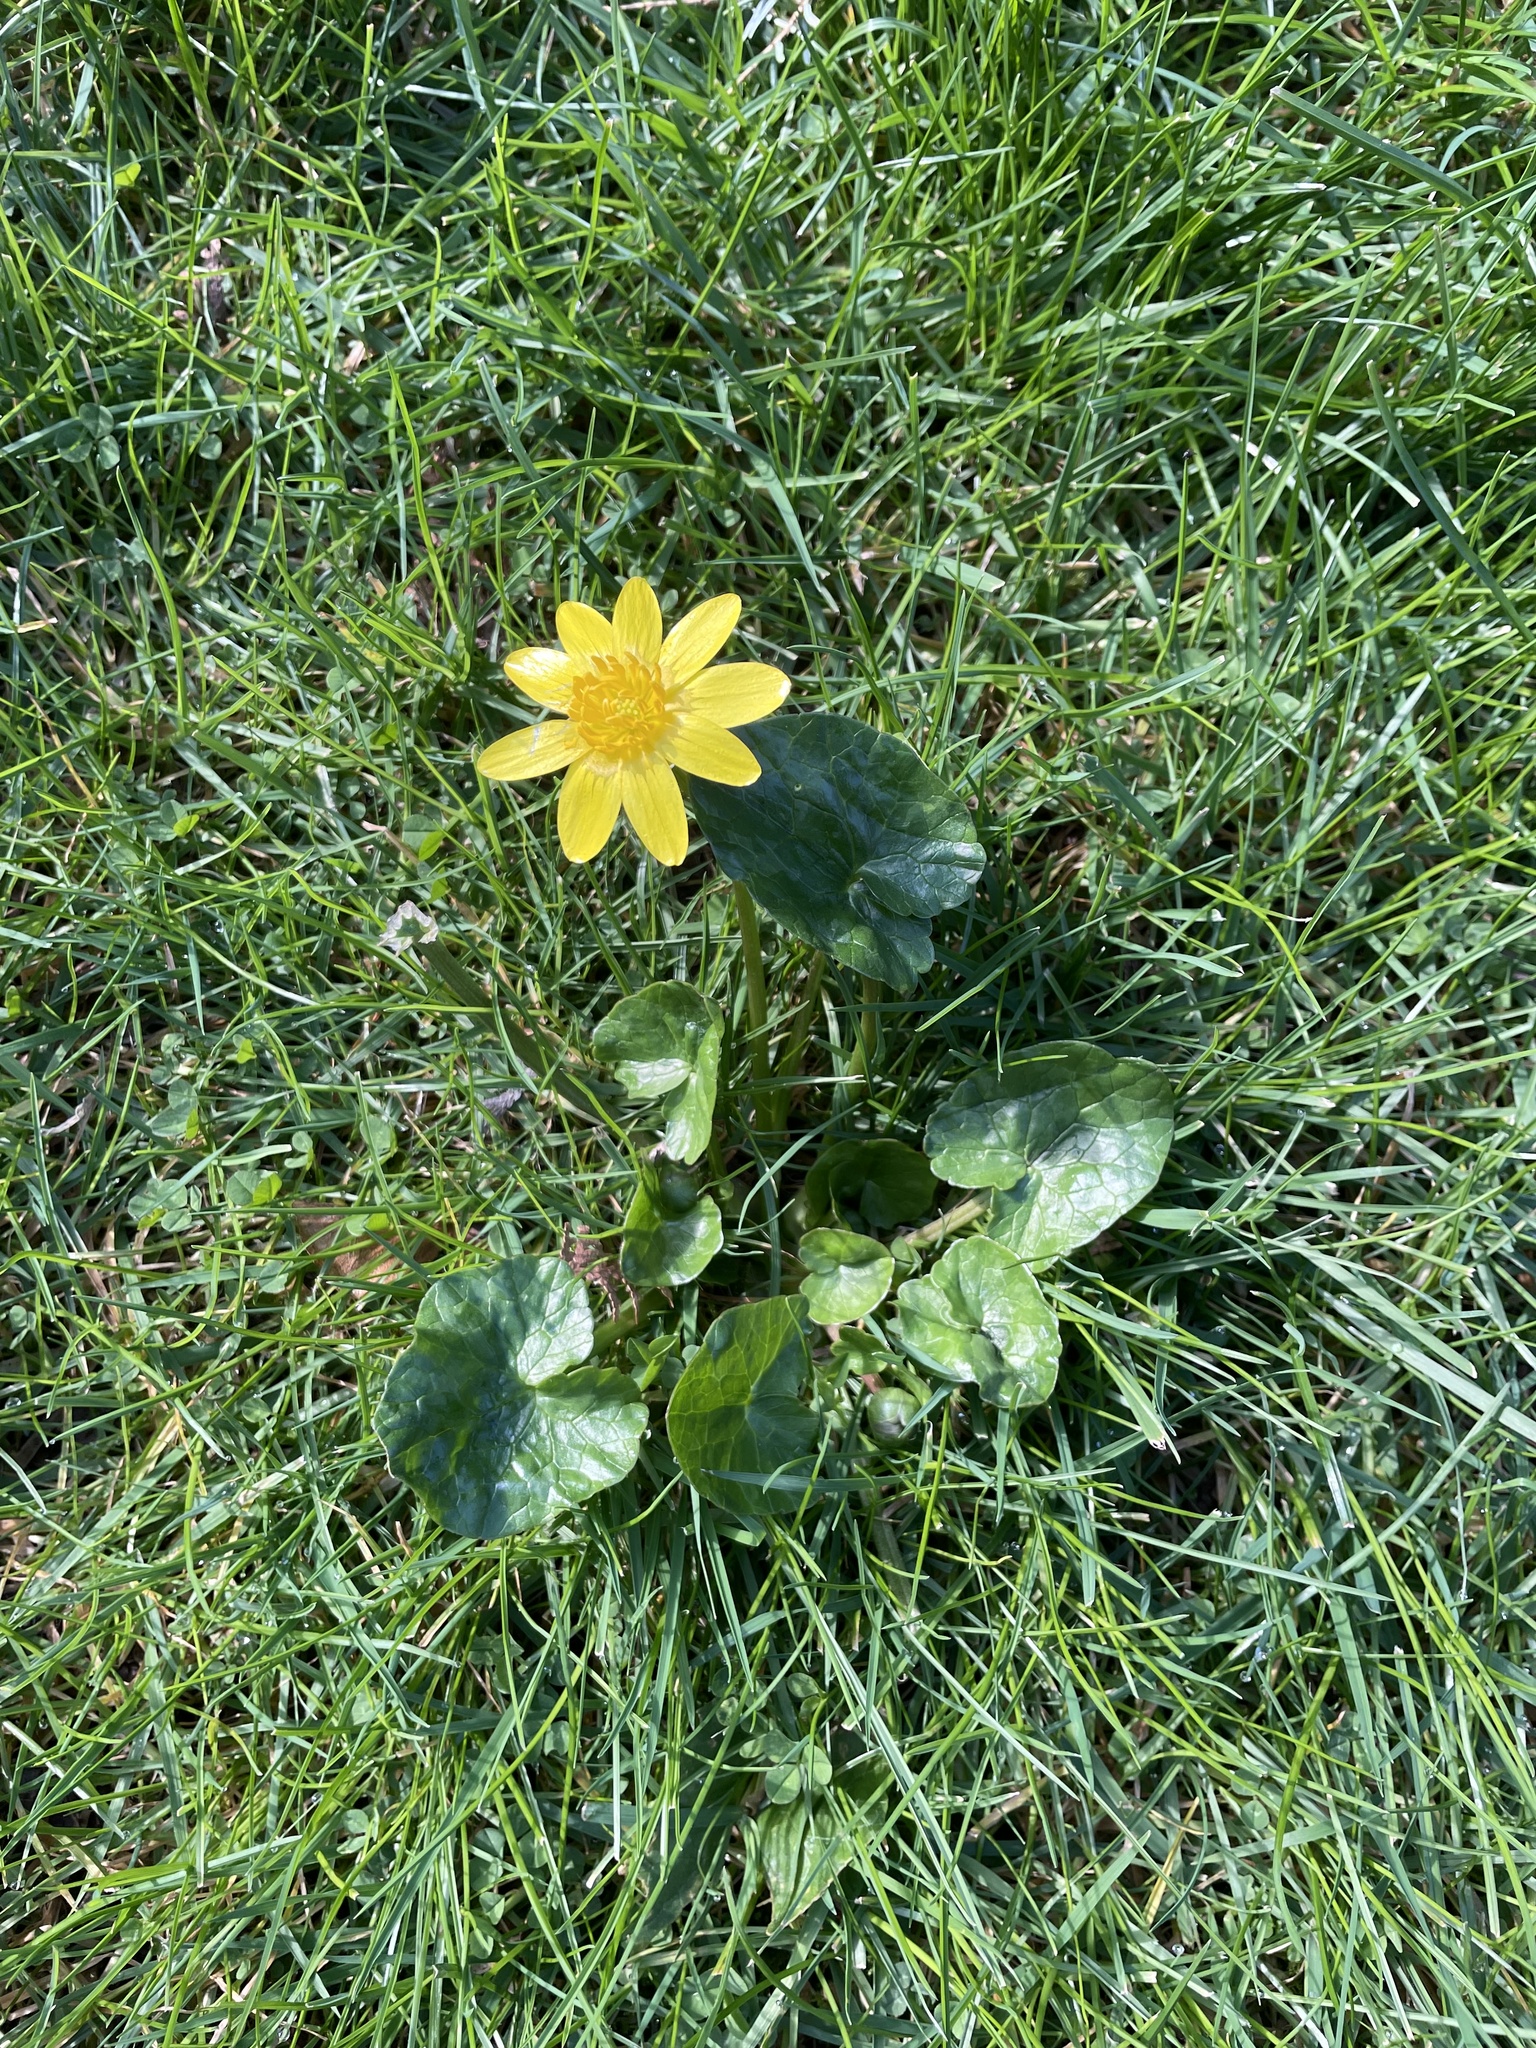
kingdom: Plantae
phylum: Tracheophyta
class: Magnoliopsida
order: Ranunculales
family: Ranunculaceae
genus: Ficaria
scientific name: Ficaria verna
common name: Lesser celandine
